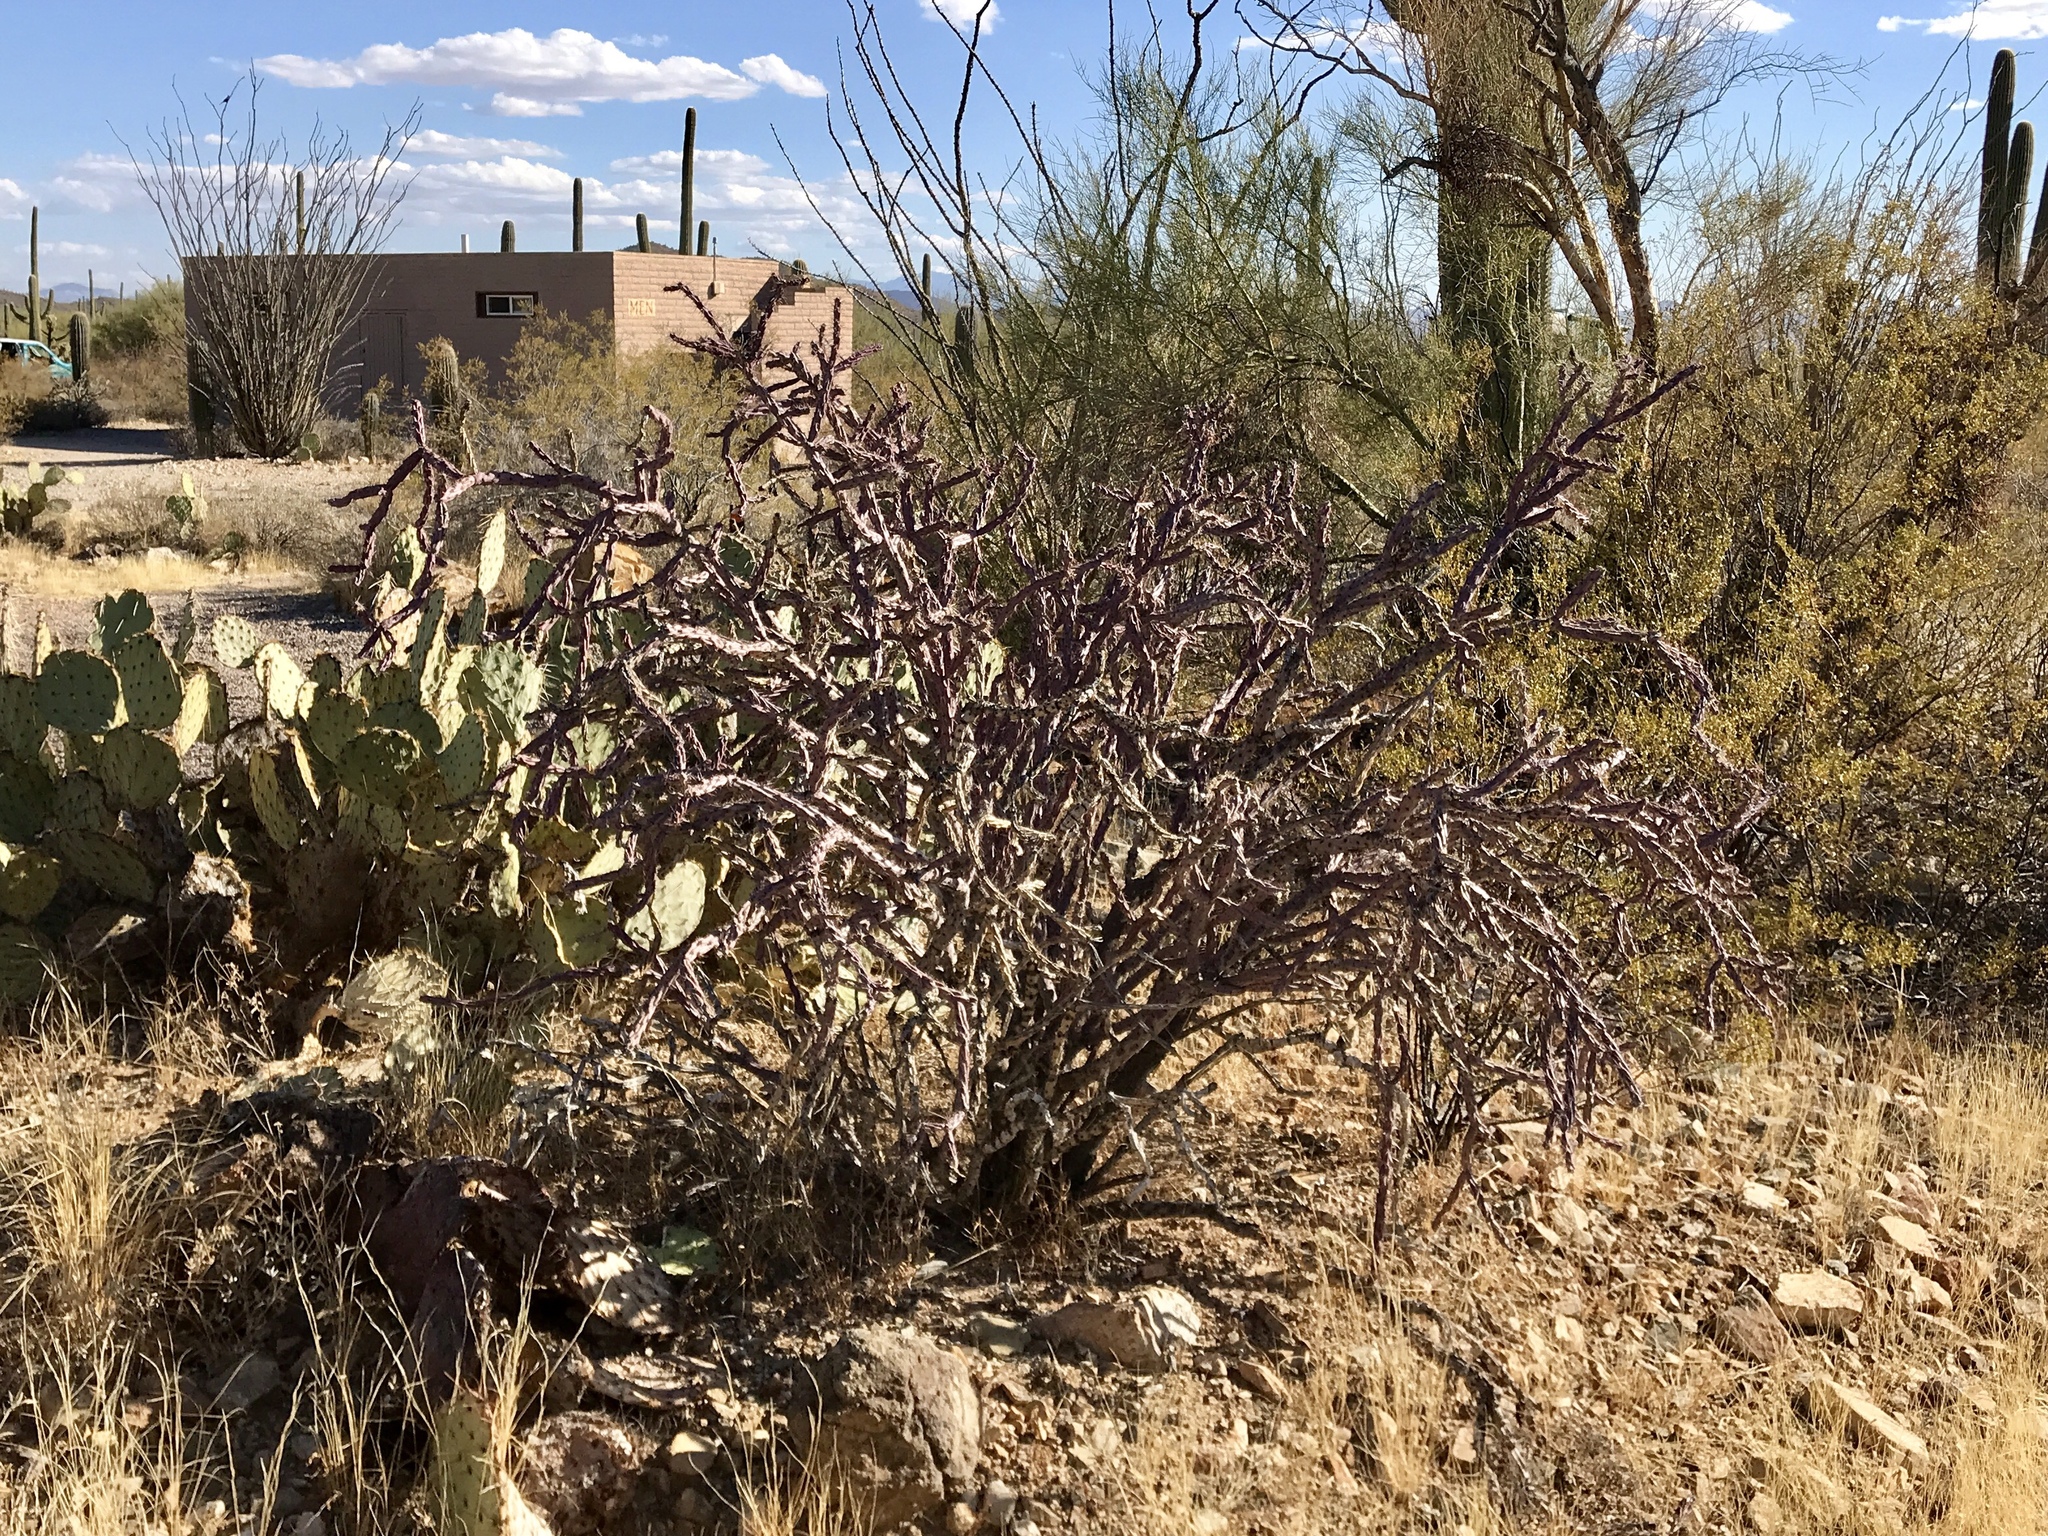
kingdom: Plantae
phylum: Tracheophyta
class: Magnoliopsida
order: Caryophyllales
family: Cactaceae
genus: Cylindropuntia
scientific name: Cylindropuntia thurberi
